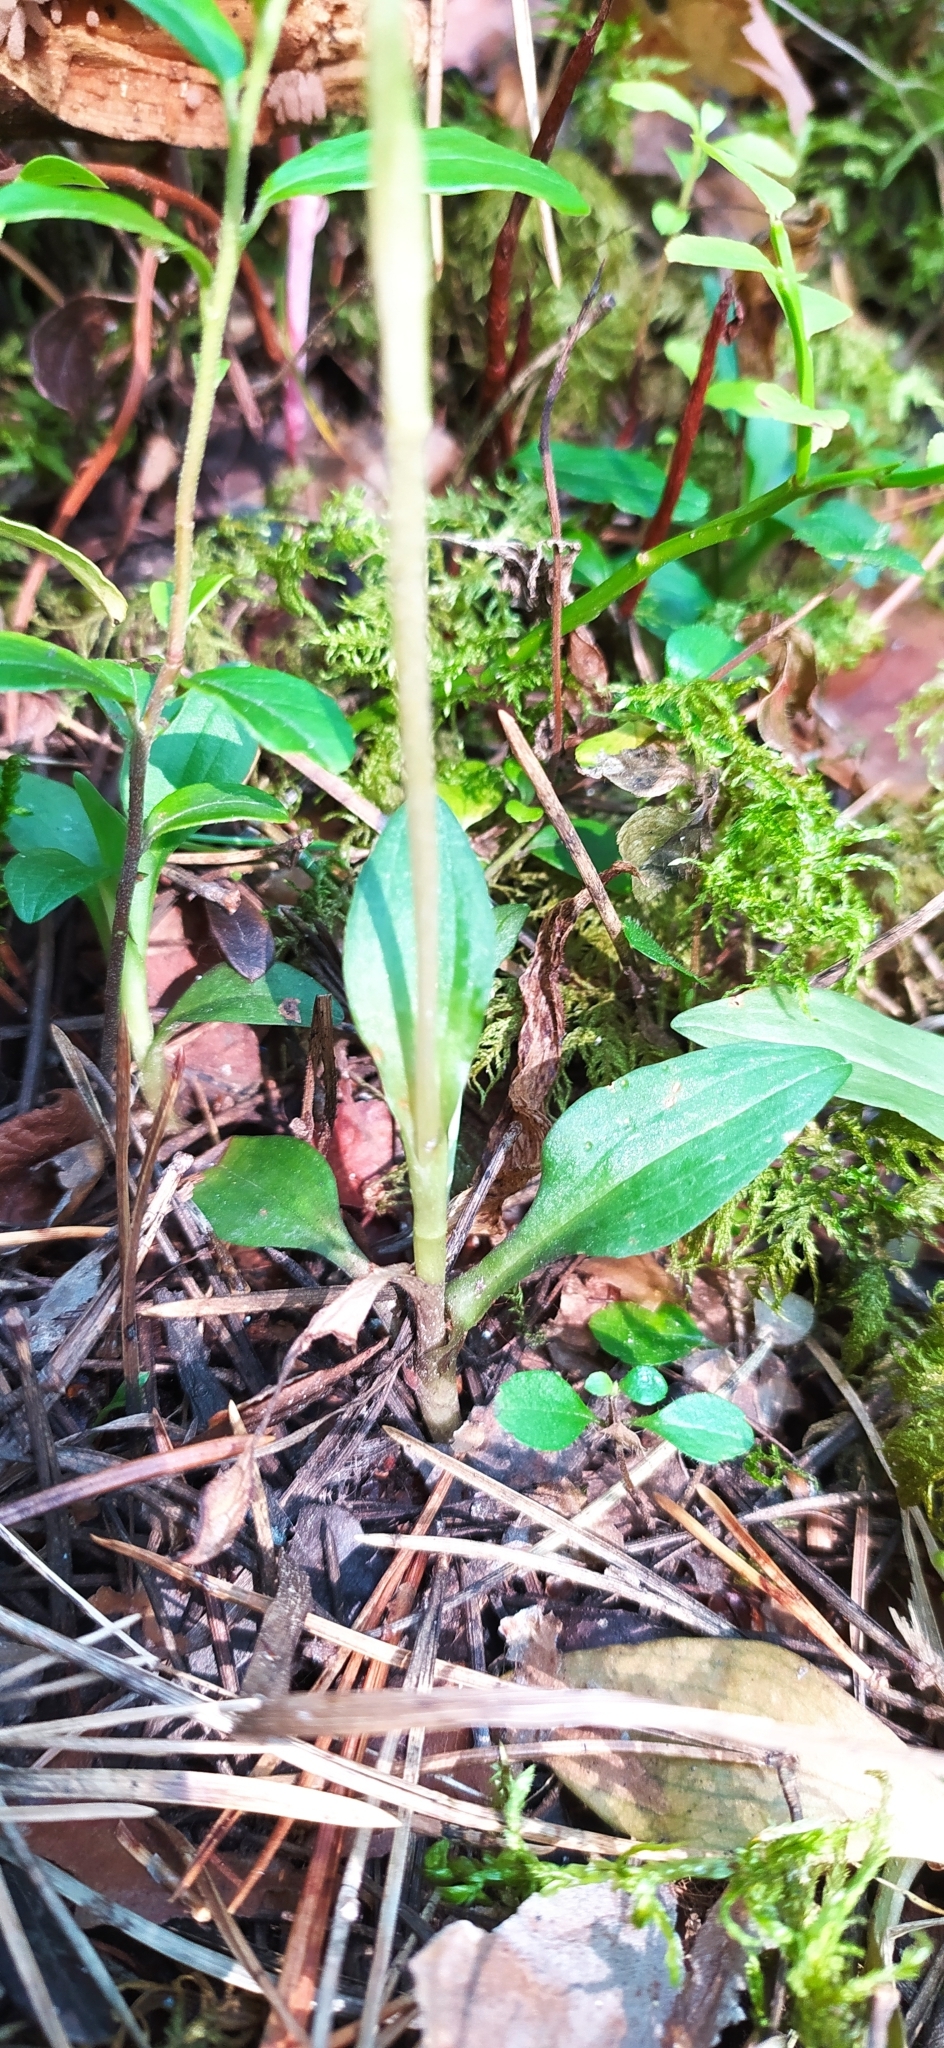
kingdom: Plantae
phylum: Tracheophyta
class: Liliopsida
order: Asparagales
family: Orchidaceae
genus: Goodyera
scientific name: Goodyera repens
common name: Creeping lady's-tresses
